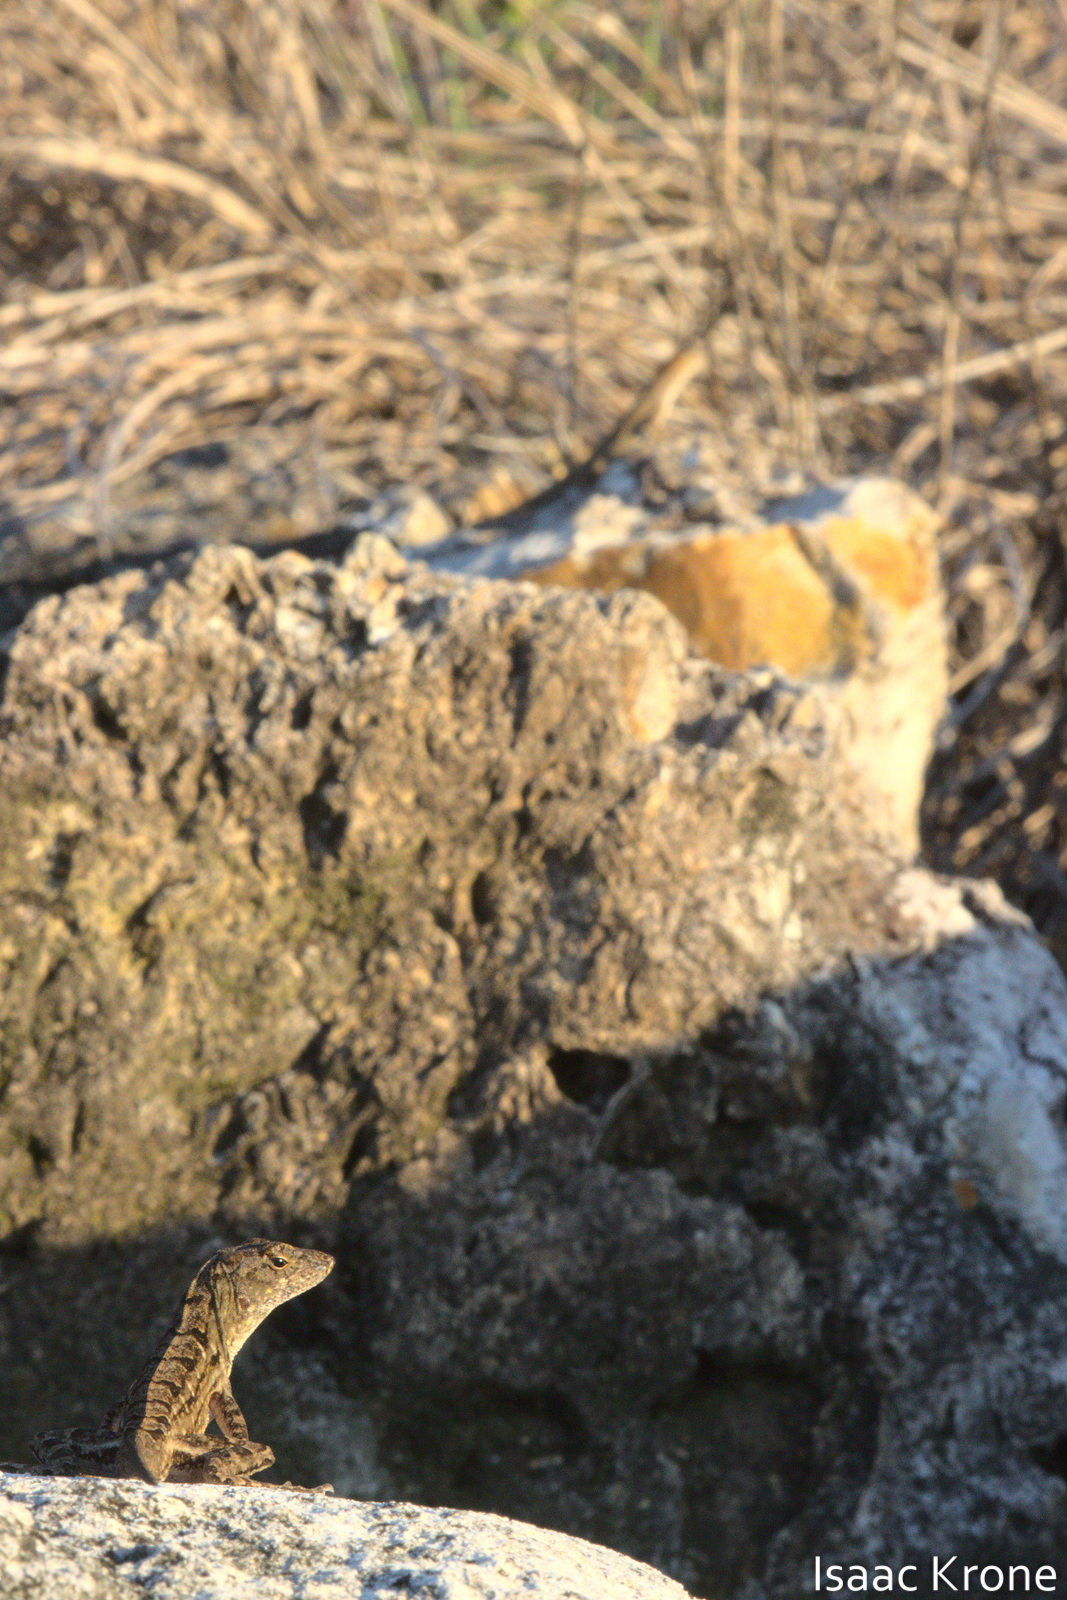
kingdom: Animalia
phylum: Chordata
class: Squamata
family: Dactyloidae
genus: Anolis
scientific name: Anolis sagrei
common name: Brown anole
